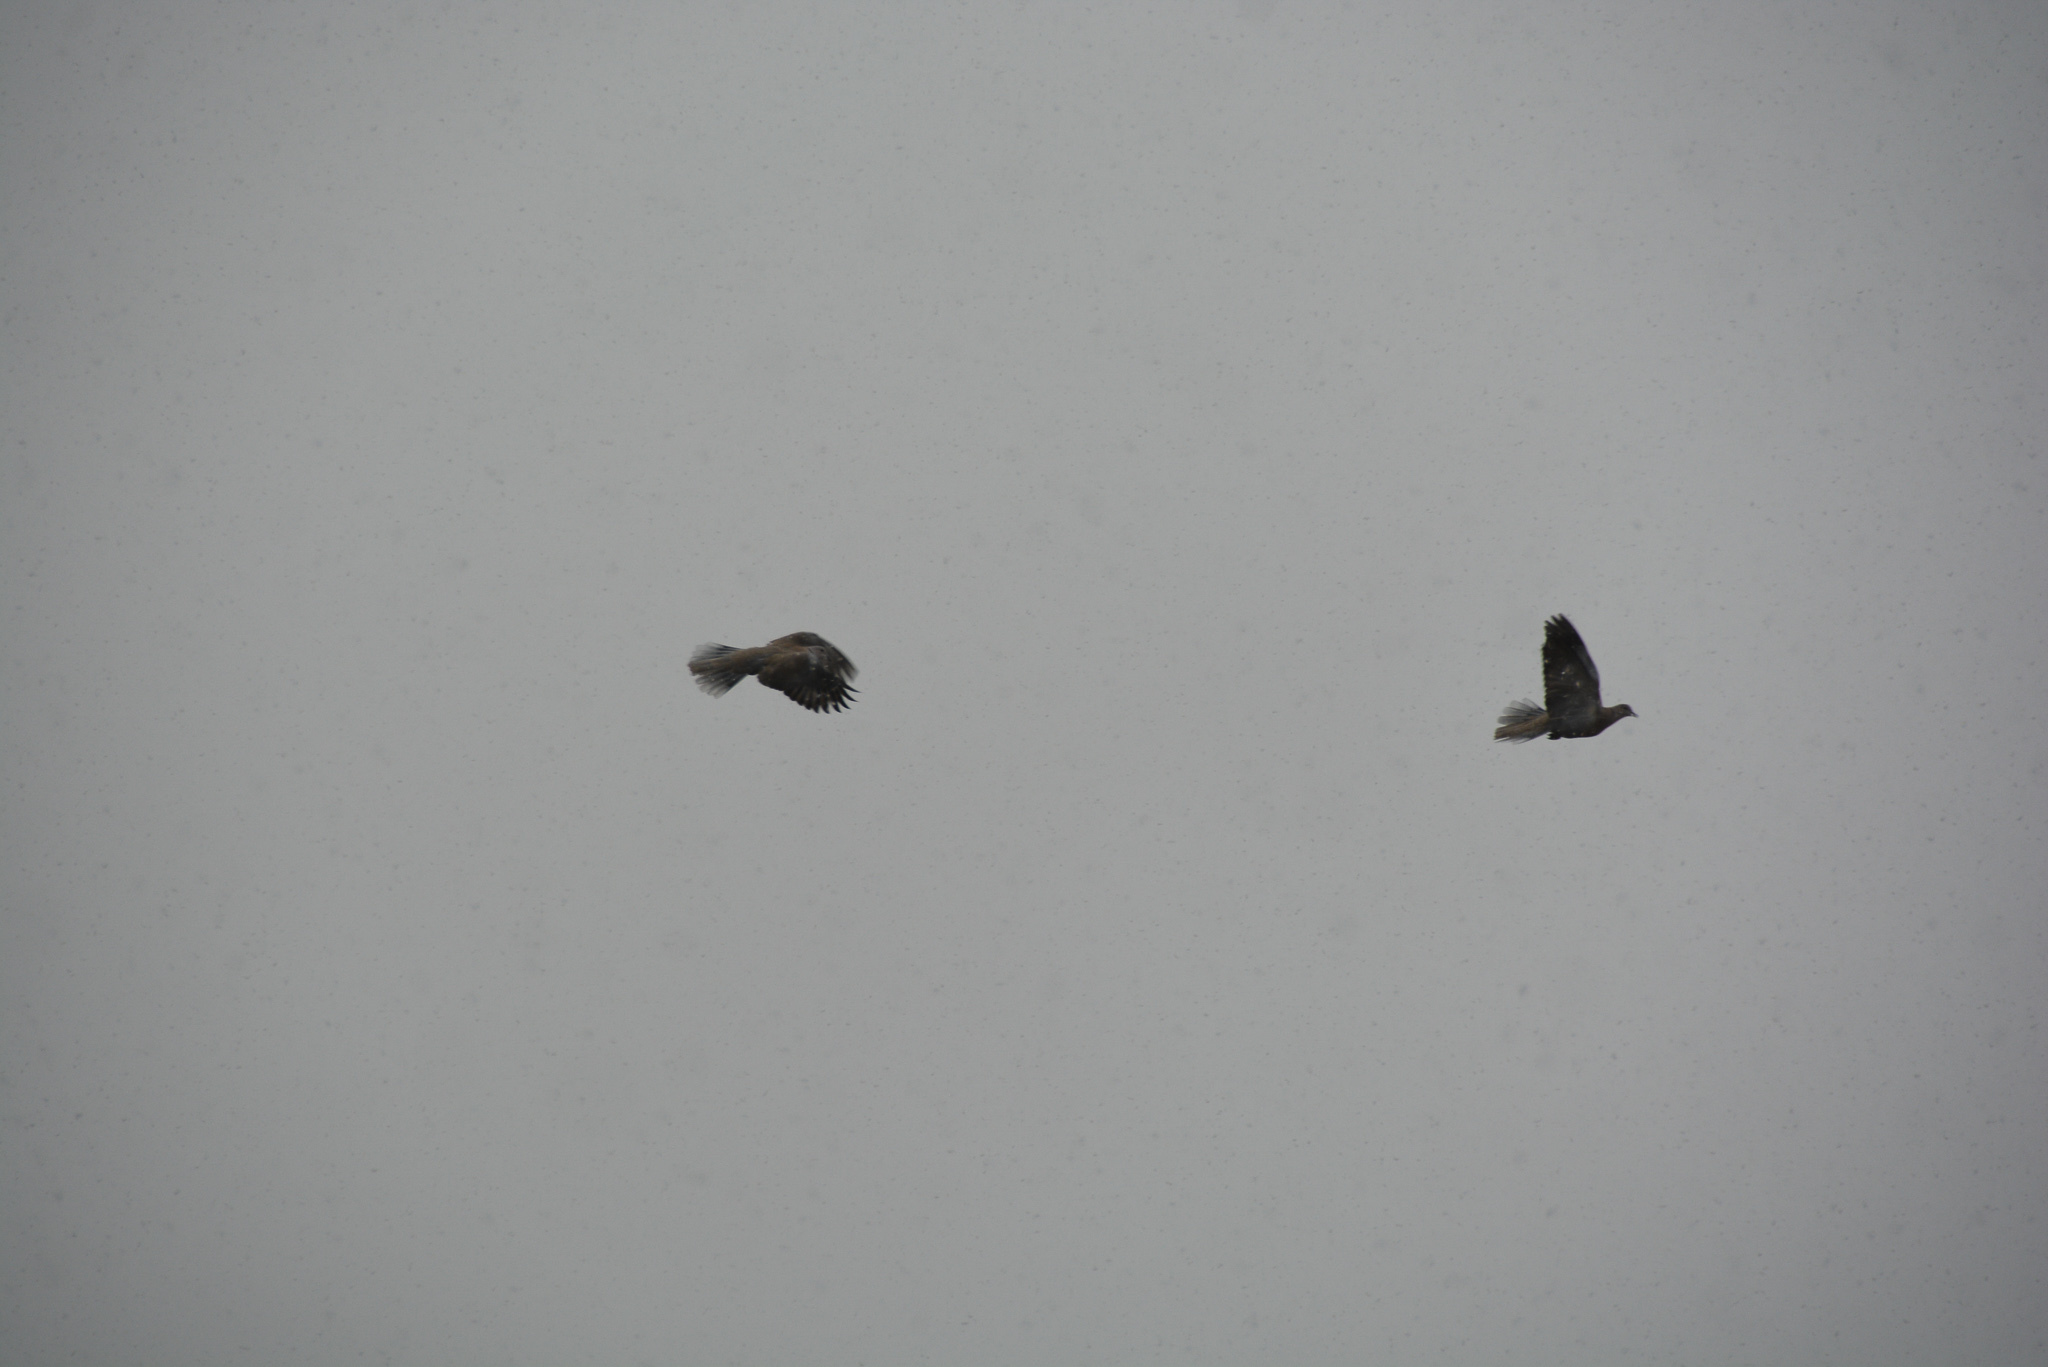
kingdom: Animalia
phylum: Chordata
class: Aves
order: Columbiformes
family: Columbidae
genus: Streptopelia
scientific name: Streptopelia decaocto
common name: Eurasian collared dove
